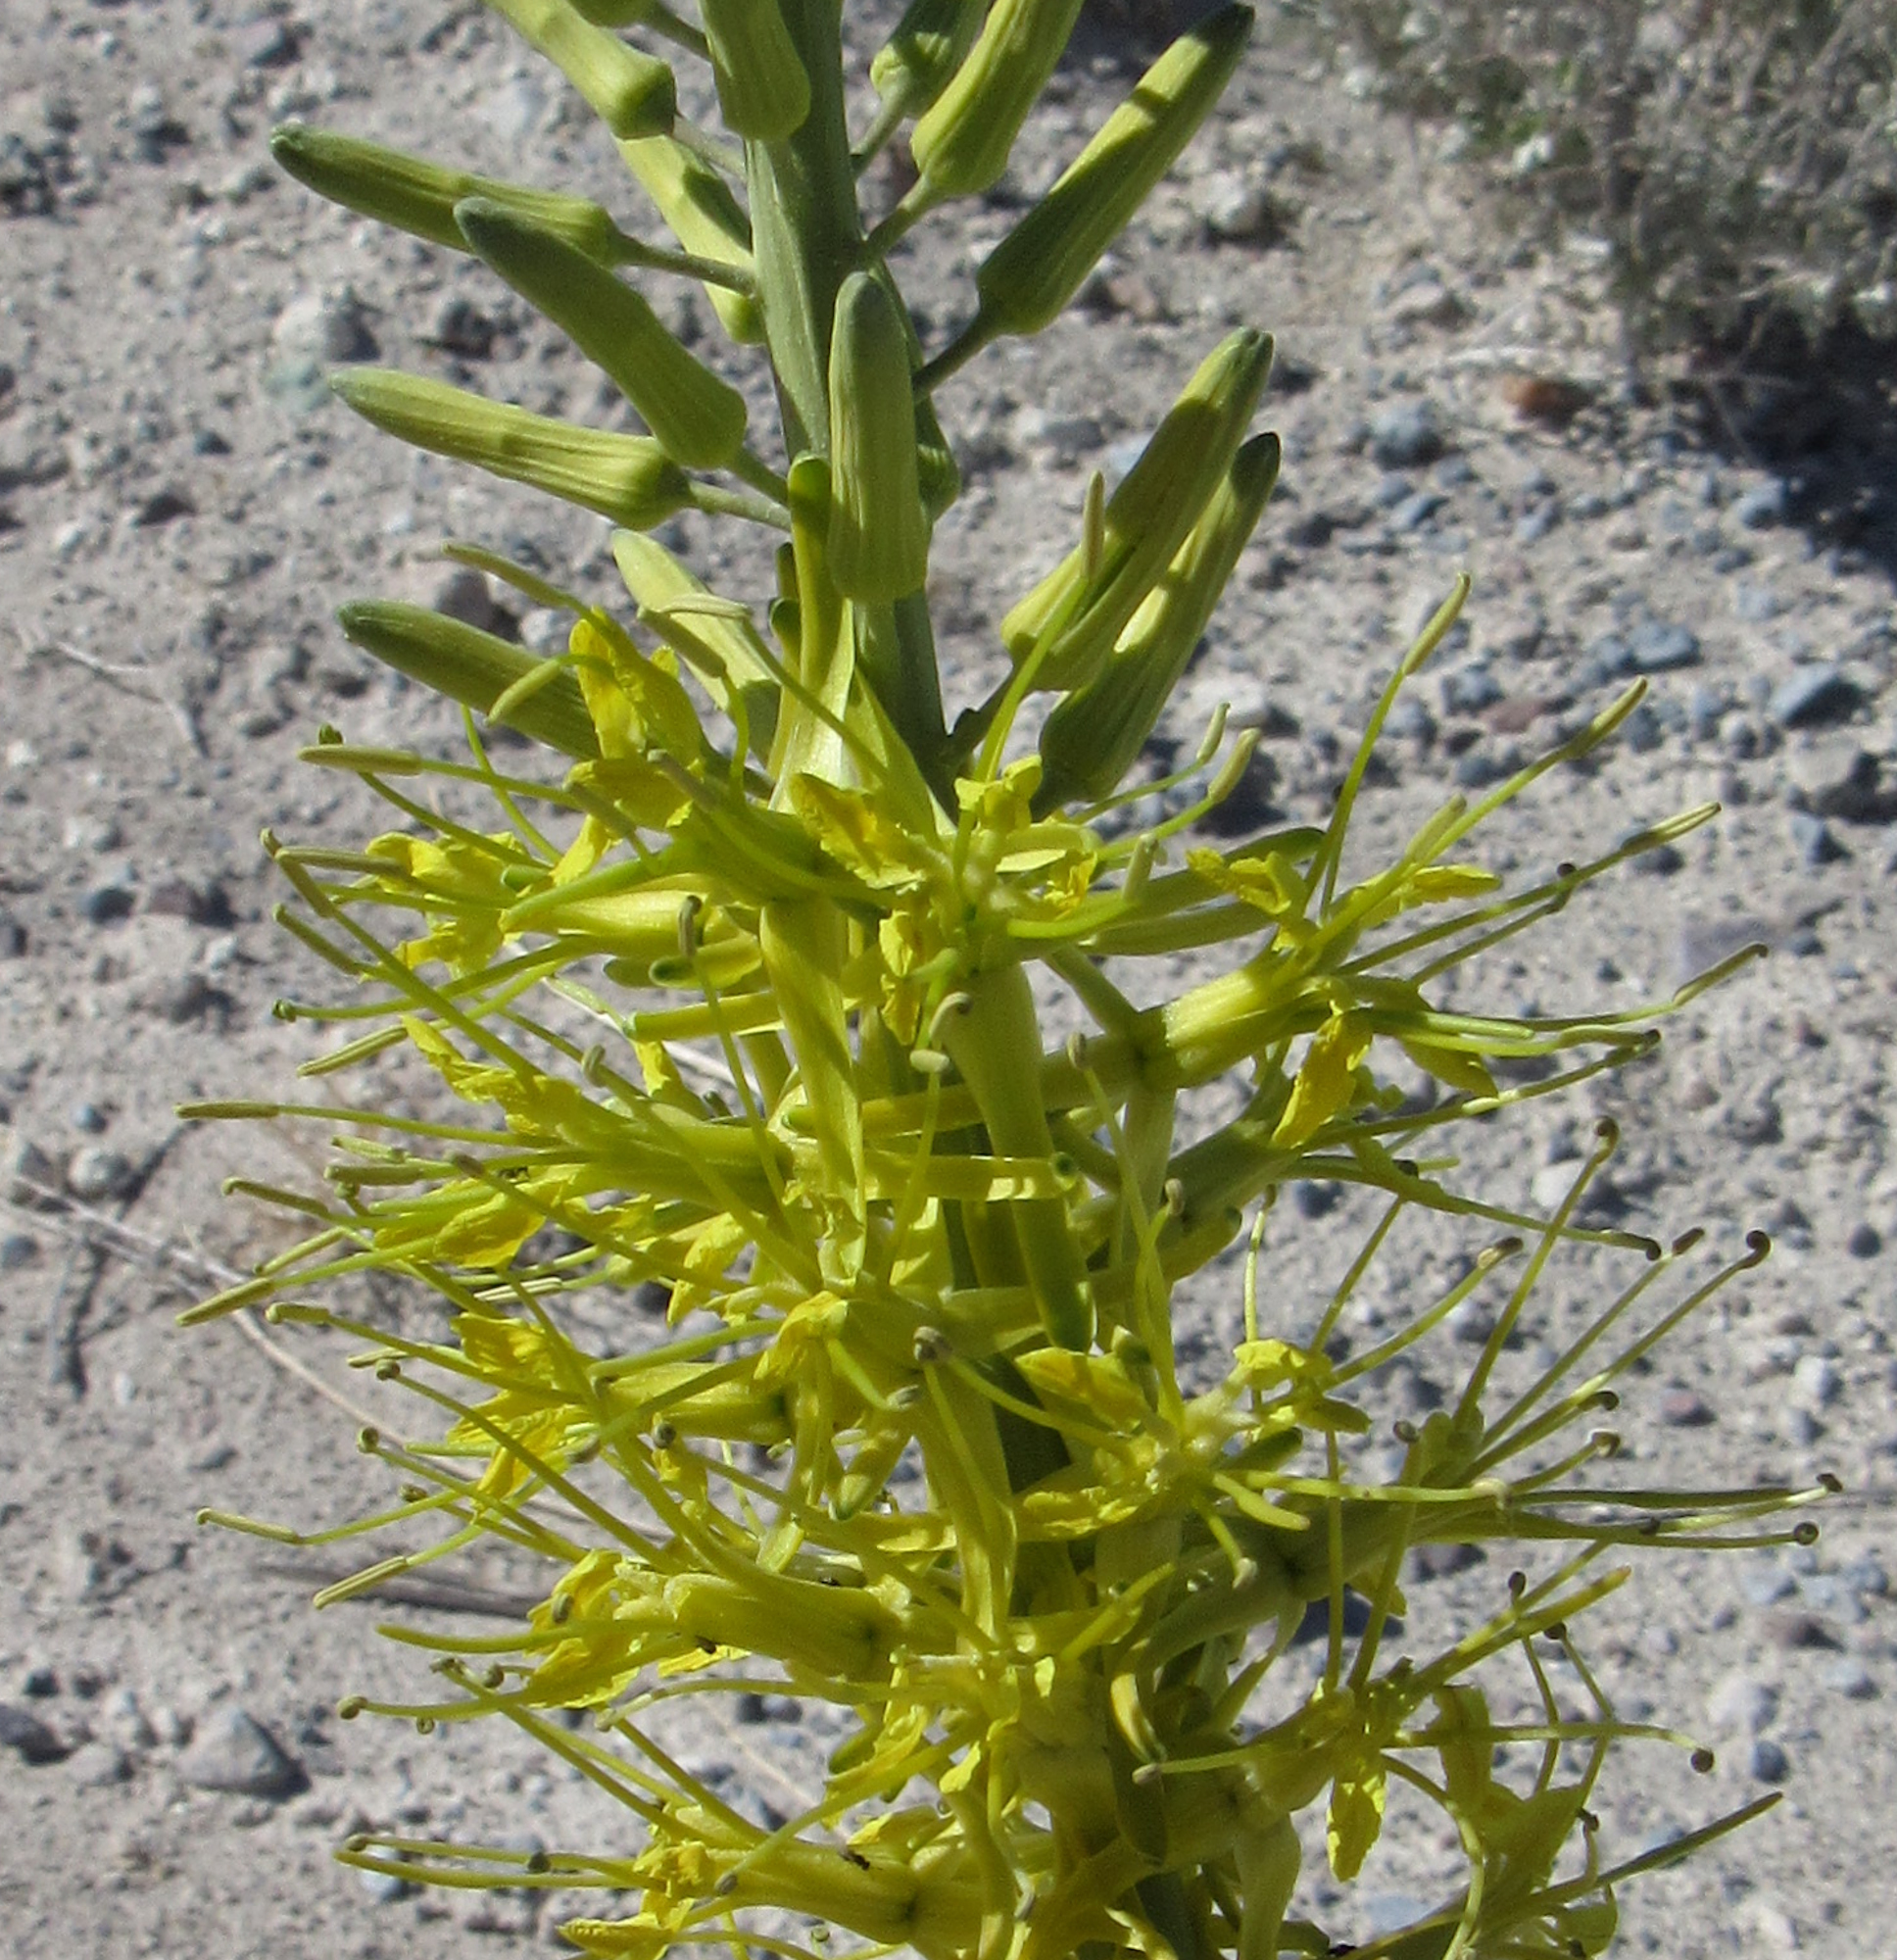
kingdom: Plantae
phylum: Tracheophyta
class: Magnoliopsida
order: Brassicales
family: Brassicaceae
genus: Stanleya
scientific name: Stanleya pinnata
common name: Prince's-plume
